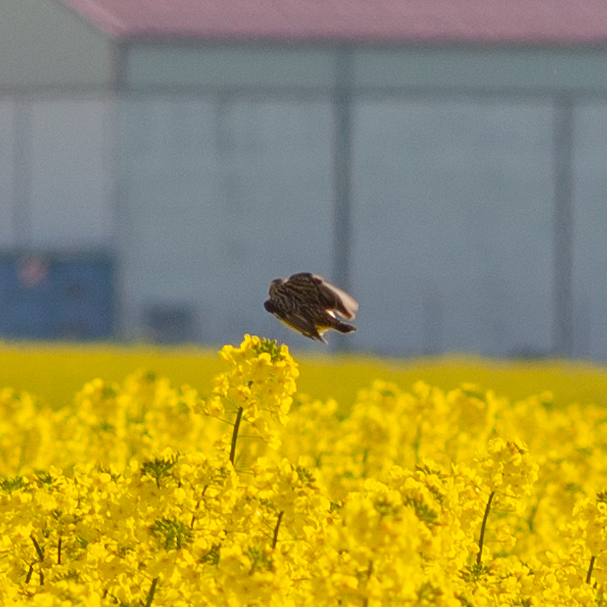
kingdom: Animalia
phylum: Chordata
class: Aves
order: Passeriformes
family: Muscicapidae
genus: Saxicola
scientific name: Saxicola rubetra
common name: Whinchat
